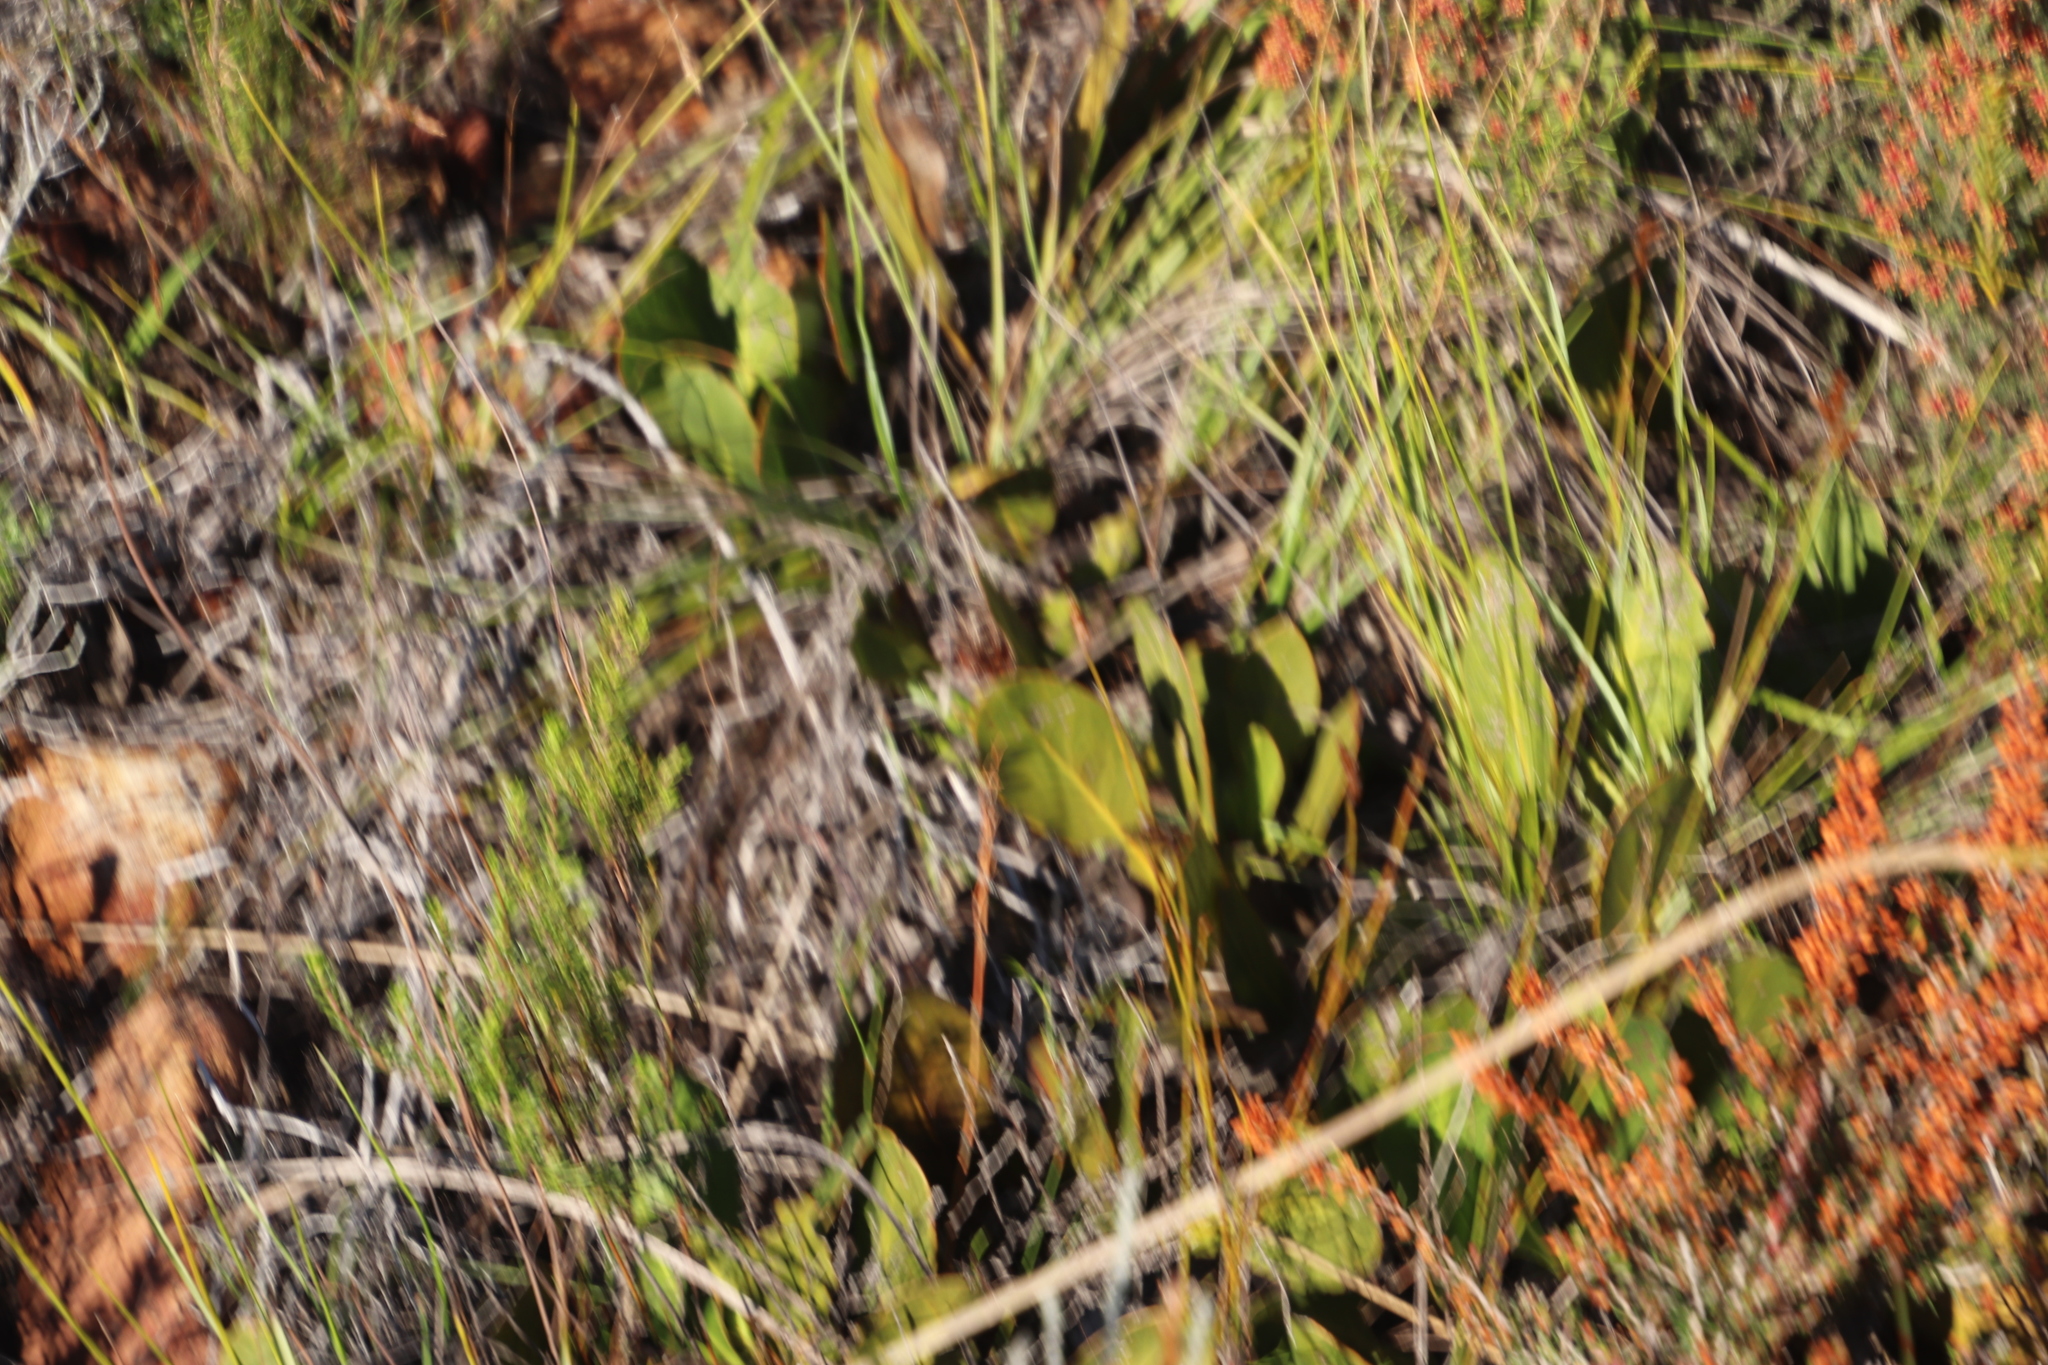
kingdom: Plantae
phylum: Tracheophyta
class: Magnoliopsida
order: Proteales
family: Proteaceae
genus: Protea
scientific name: Protea acaulos
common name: Common ground sugarbush
